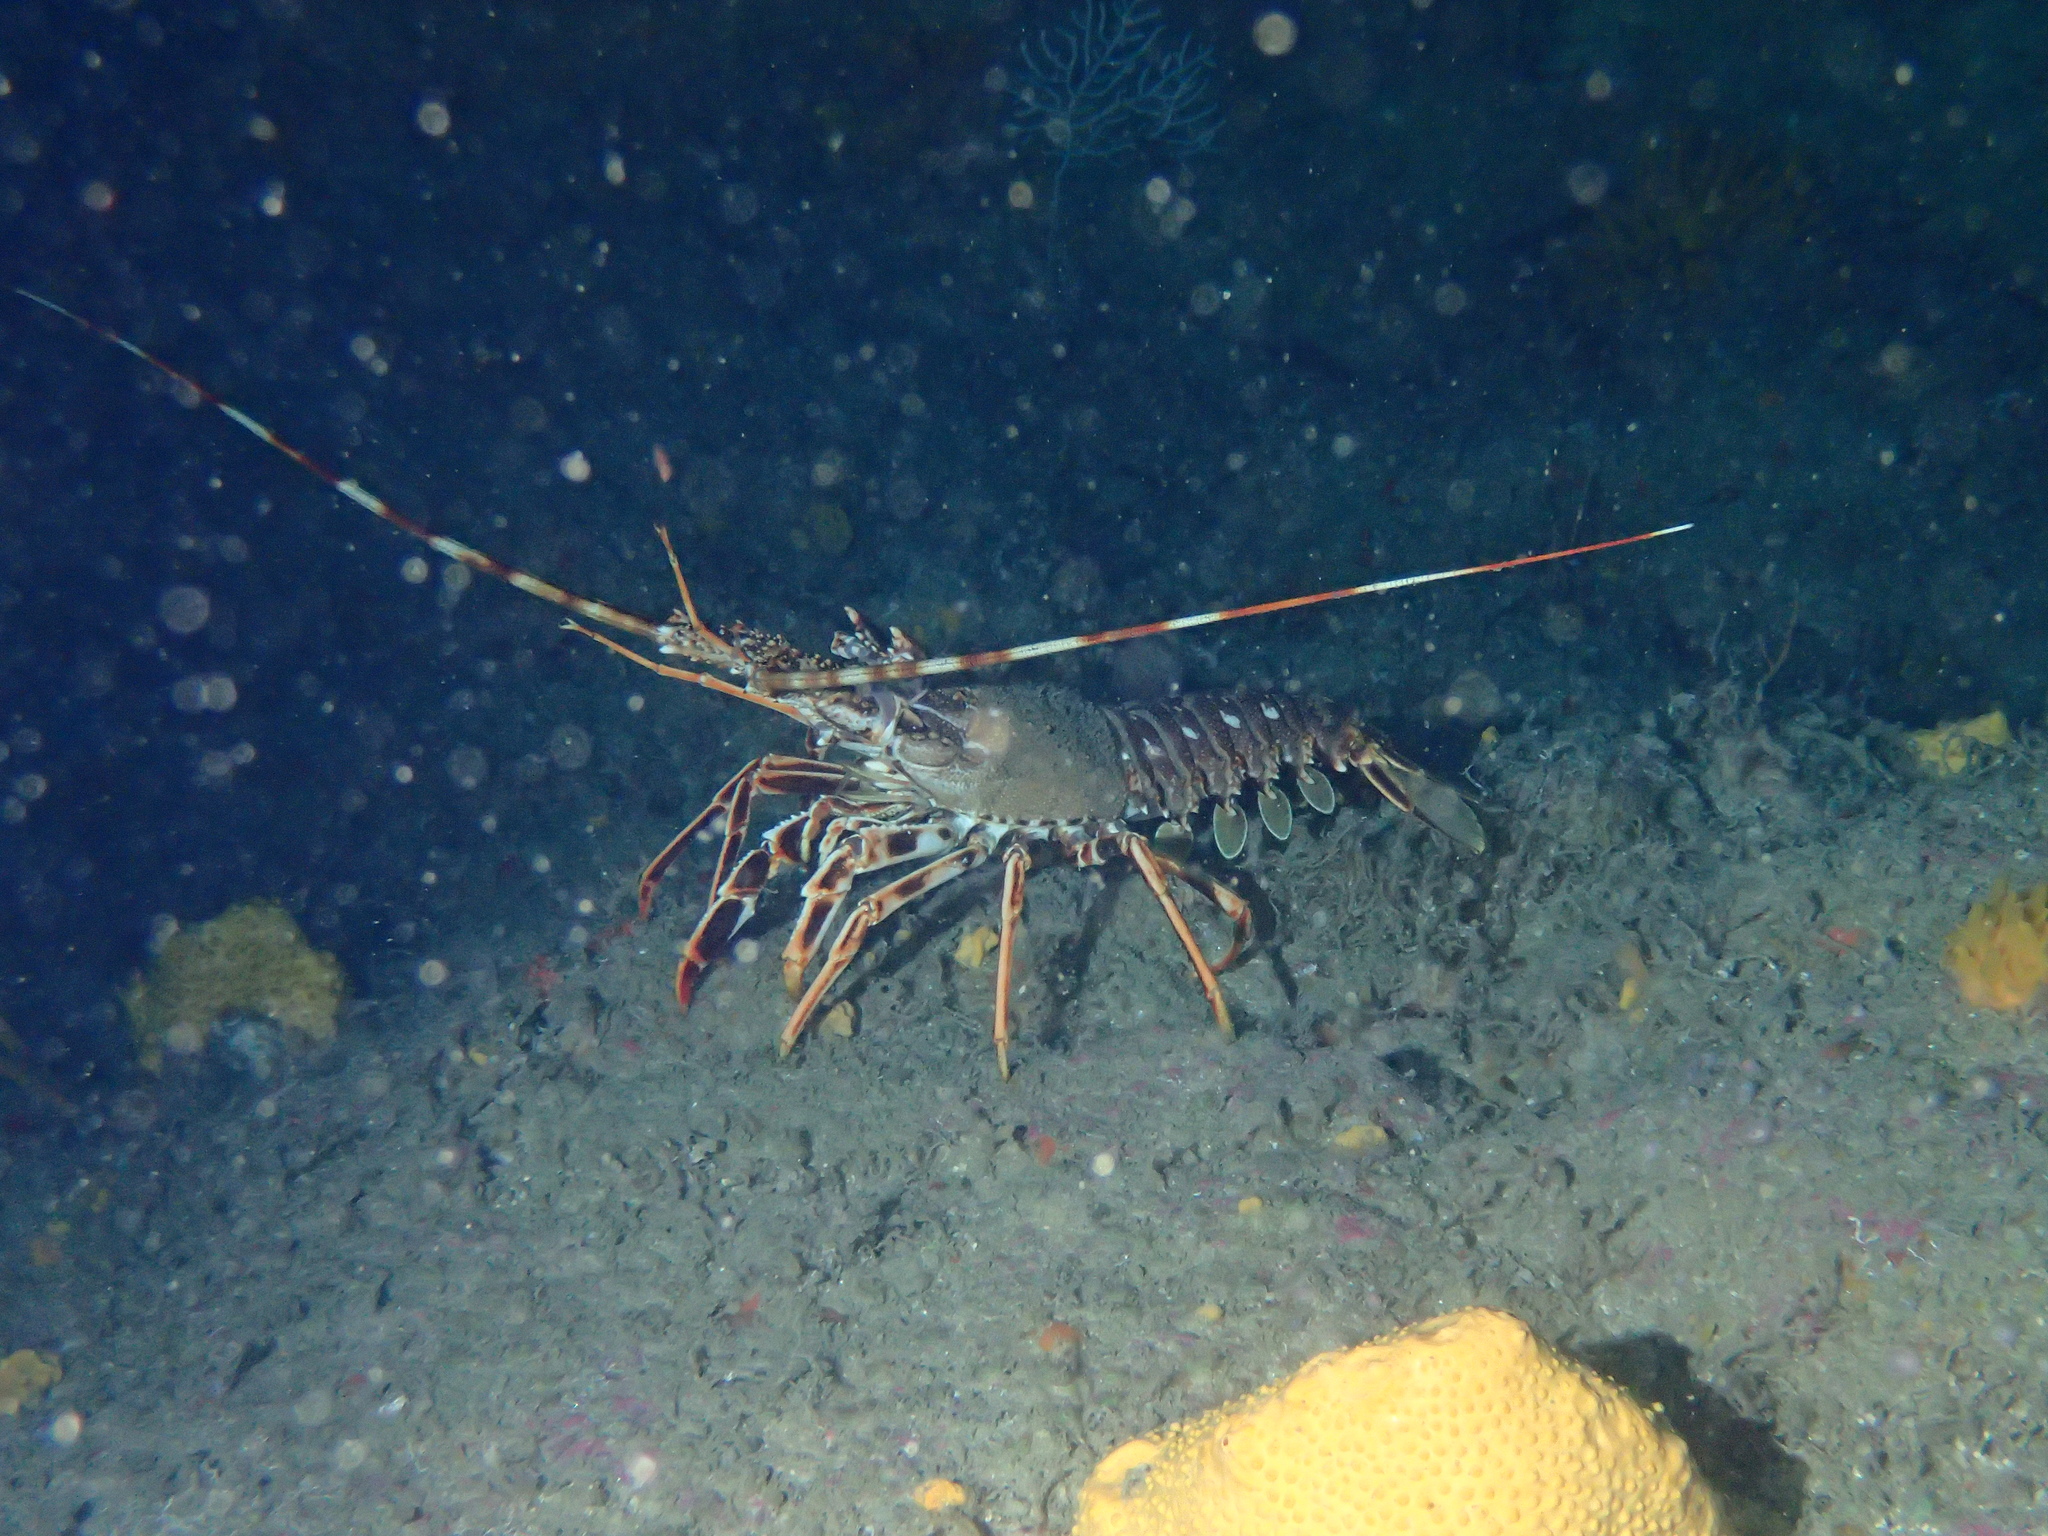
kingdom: Animalia
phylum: Arthropoda
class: Malacostraca
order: Decapoda
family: Palinuridae
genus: Palinurus
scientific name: Palinurus elephas
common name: European spiny lobster
